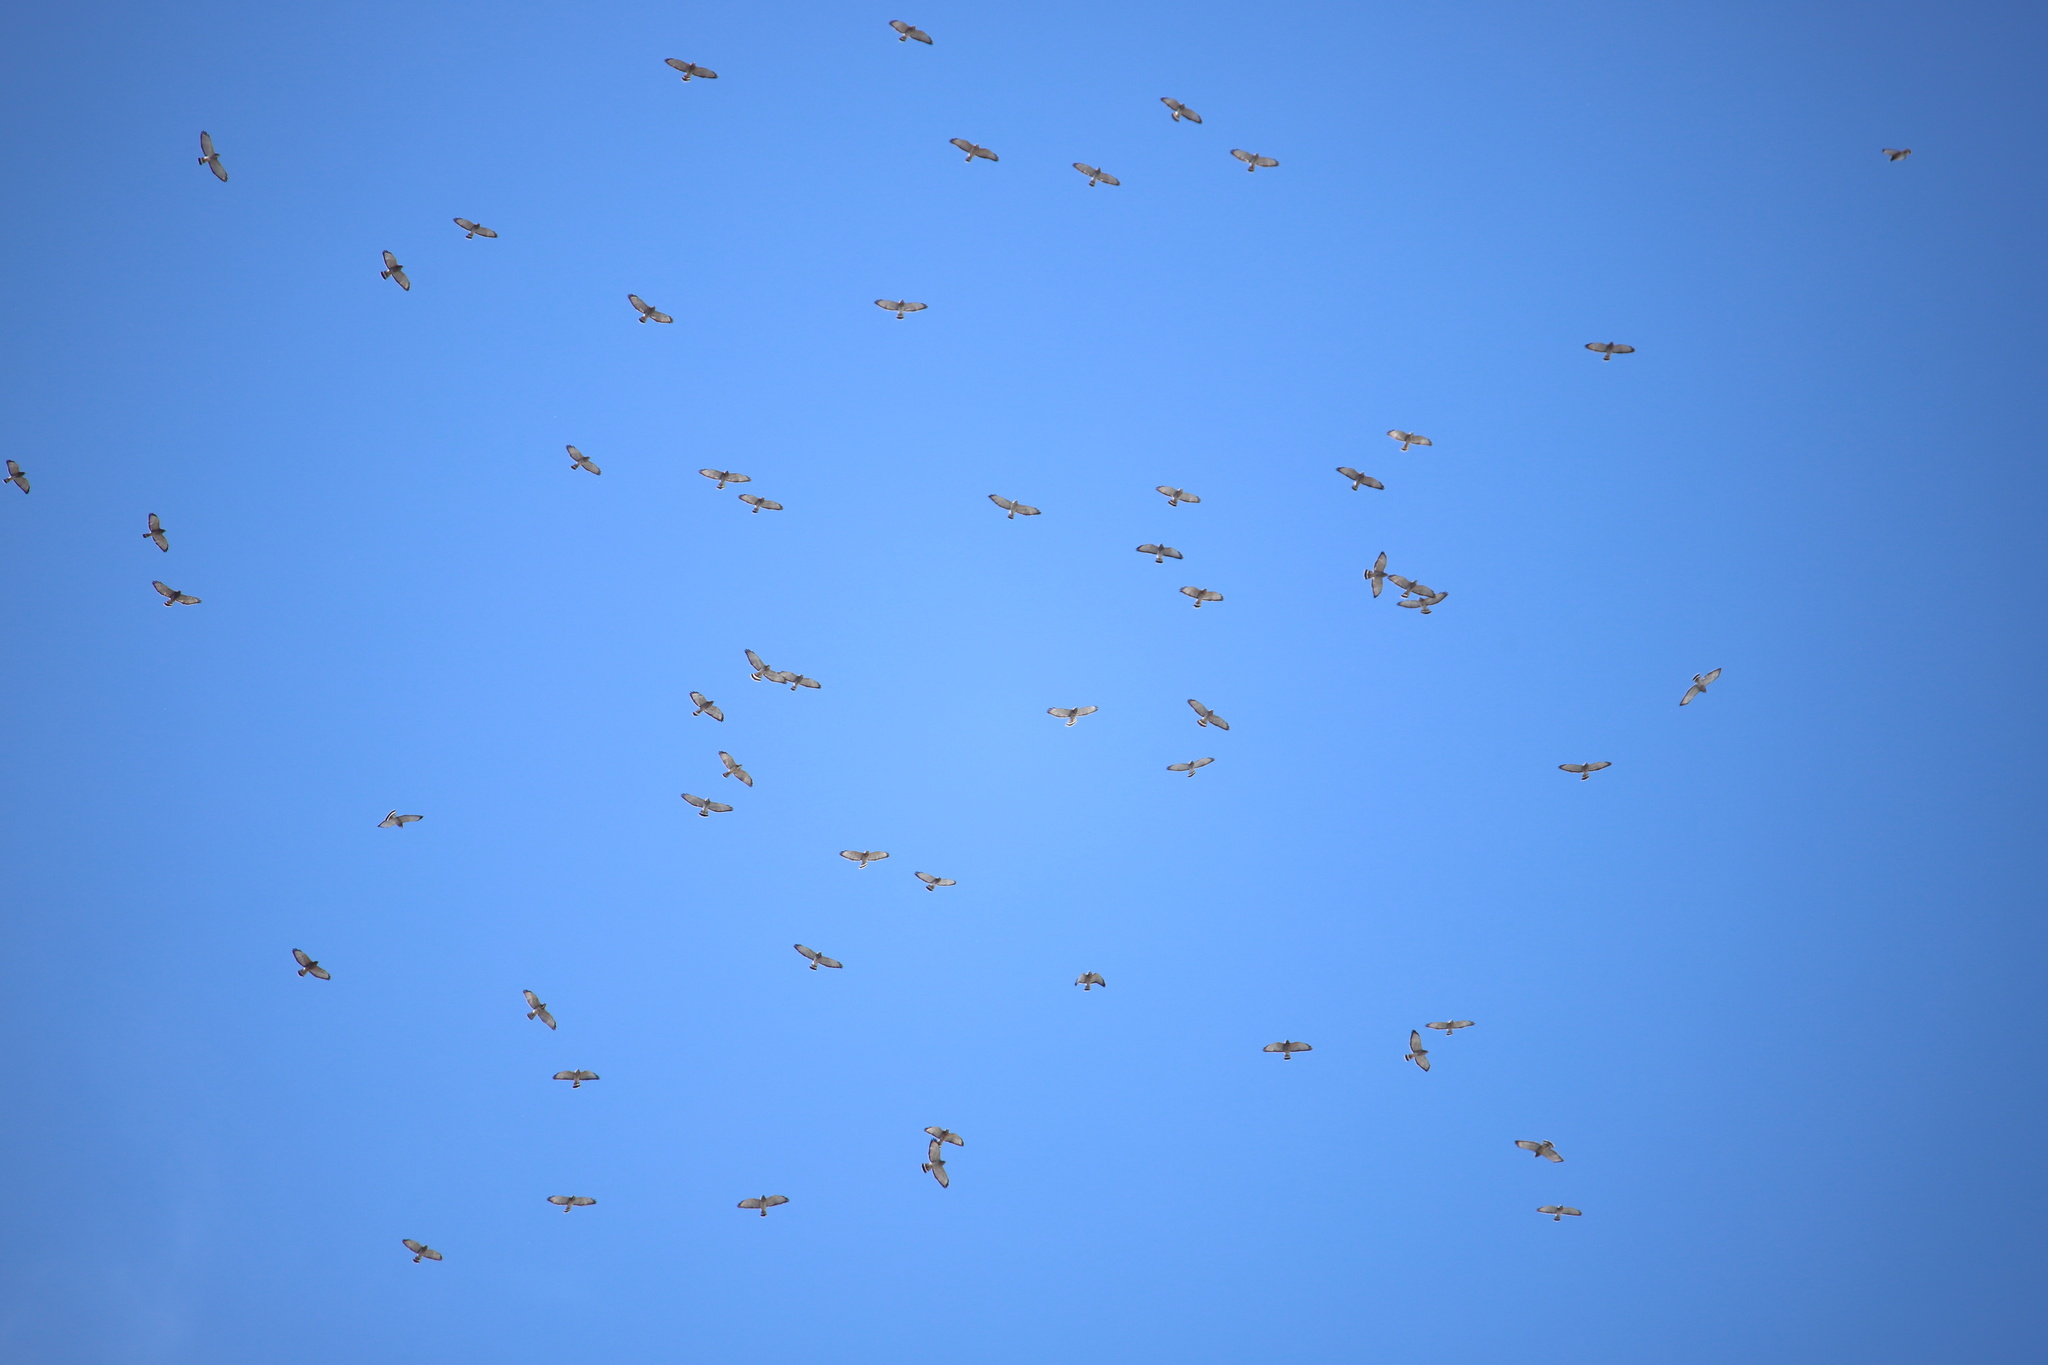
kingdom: Animalia
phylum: Chordata
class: Aves
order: Accipitriformes
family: Accipitridae
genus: Buteo
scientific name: Buteo platypterus
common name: Broad-winged hawk
